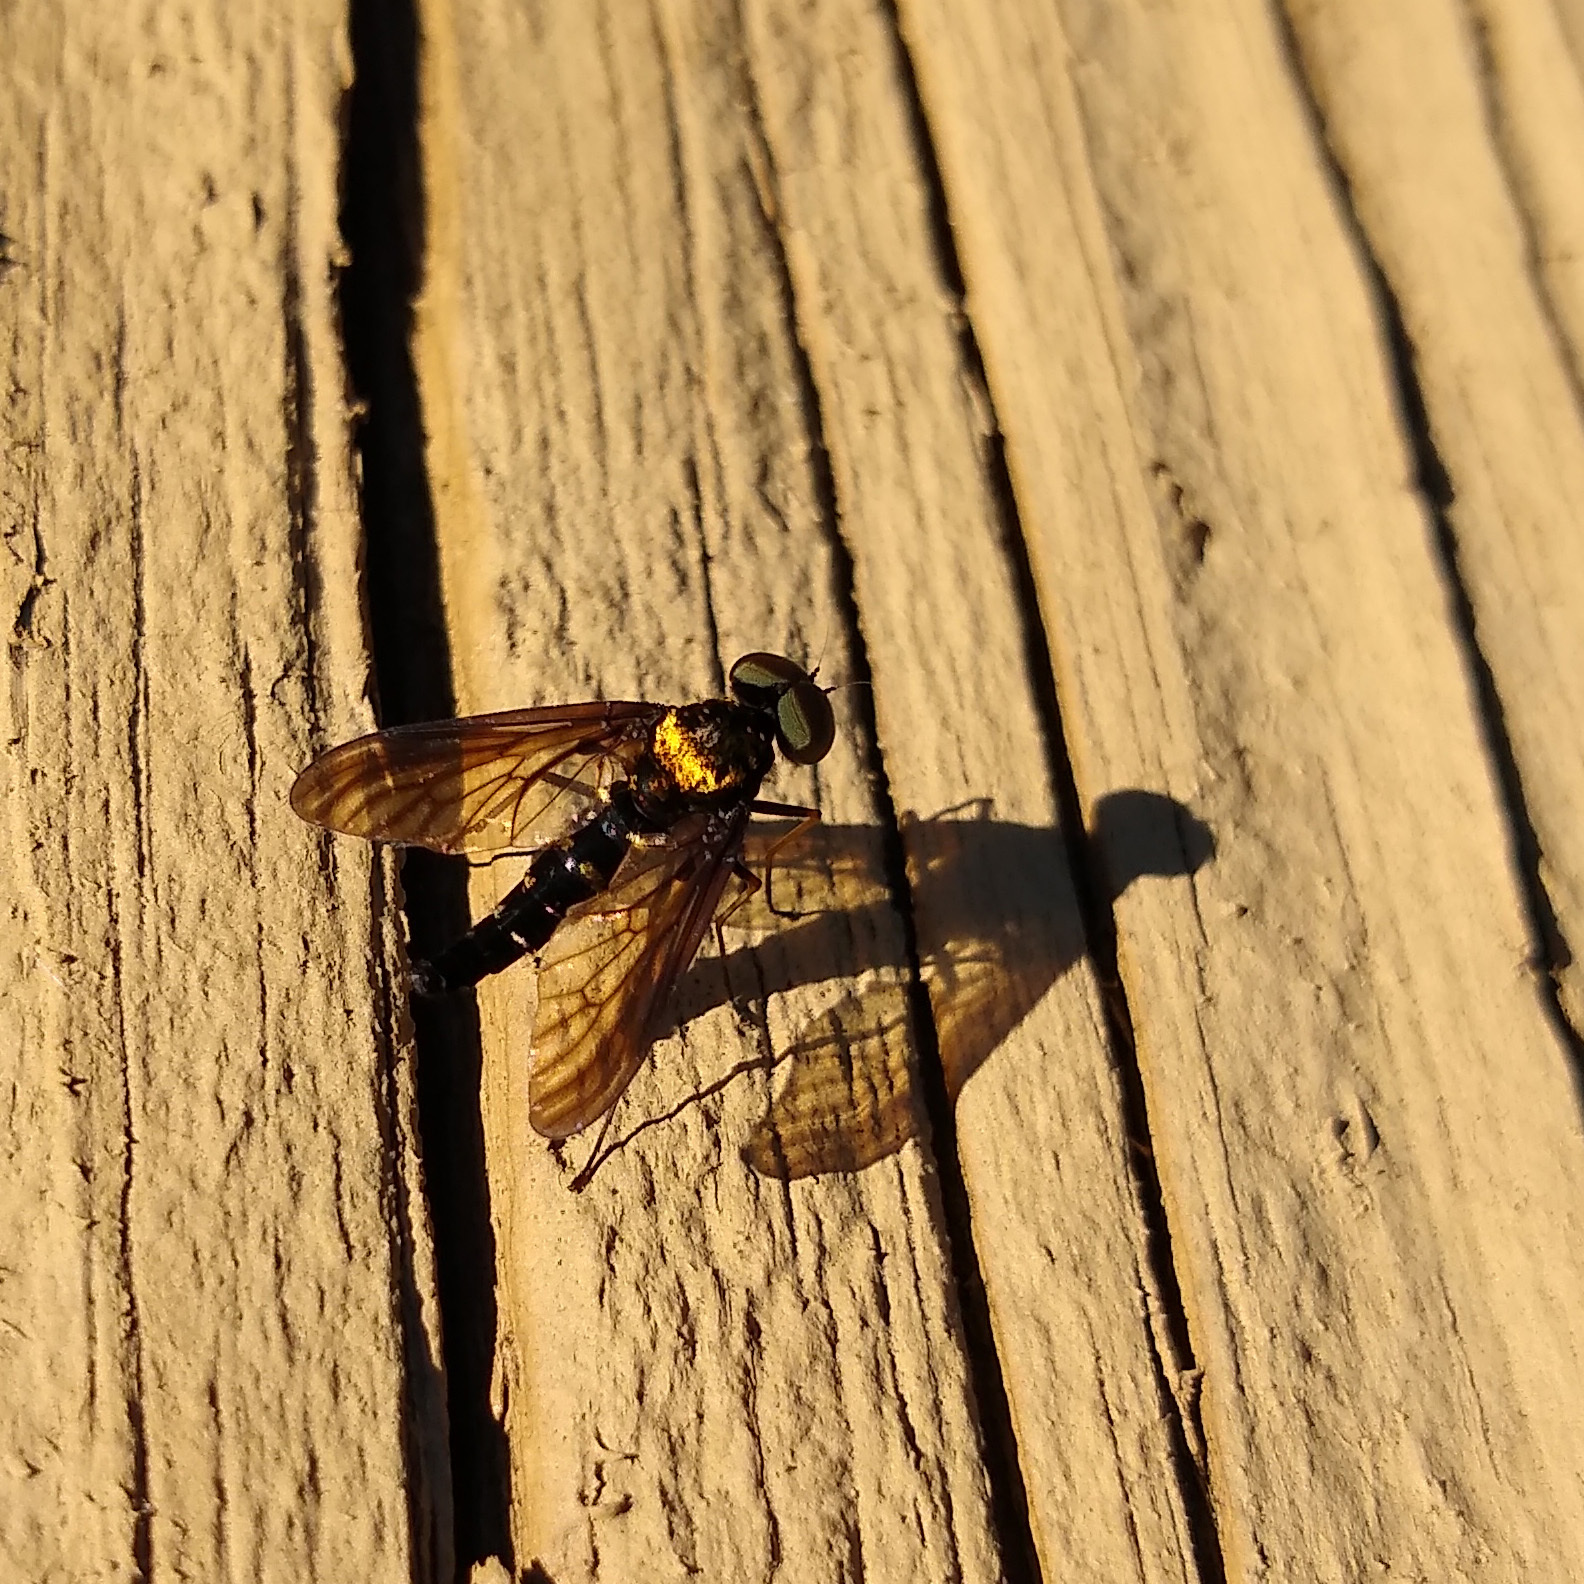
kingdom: Animalia
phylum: Arthropoda
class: Insecta
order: Diptera
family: Rhagionidae
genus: Chrysopilus
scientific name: Chrysopilus thoracicus
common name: Golden-backed snipe fly
